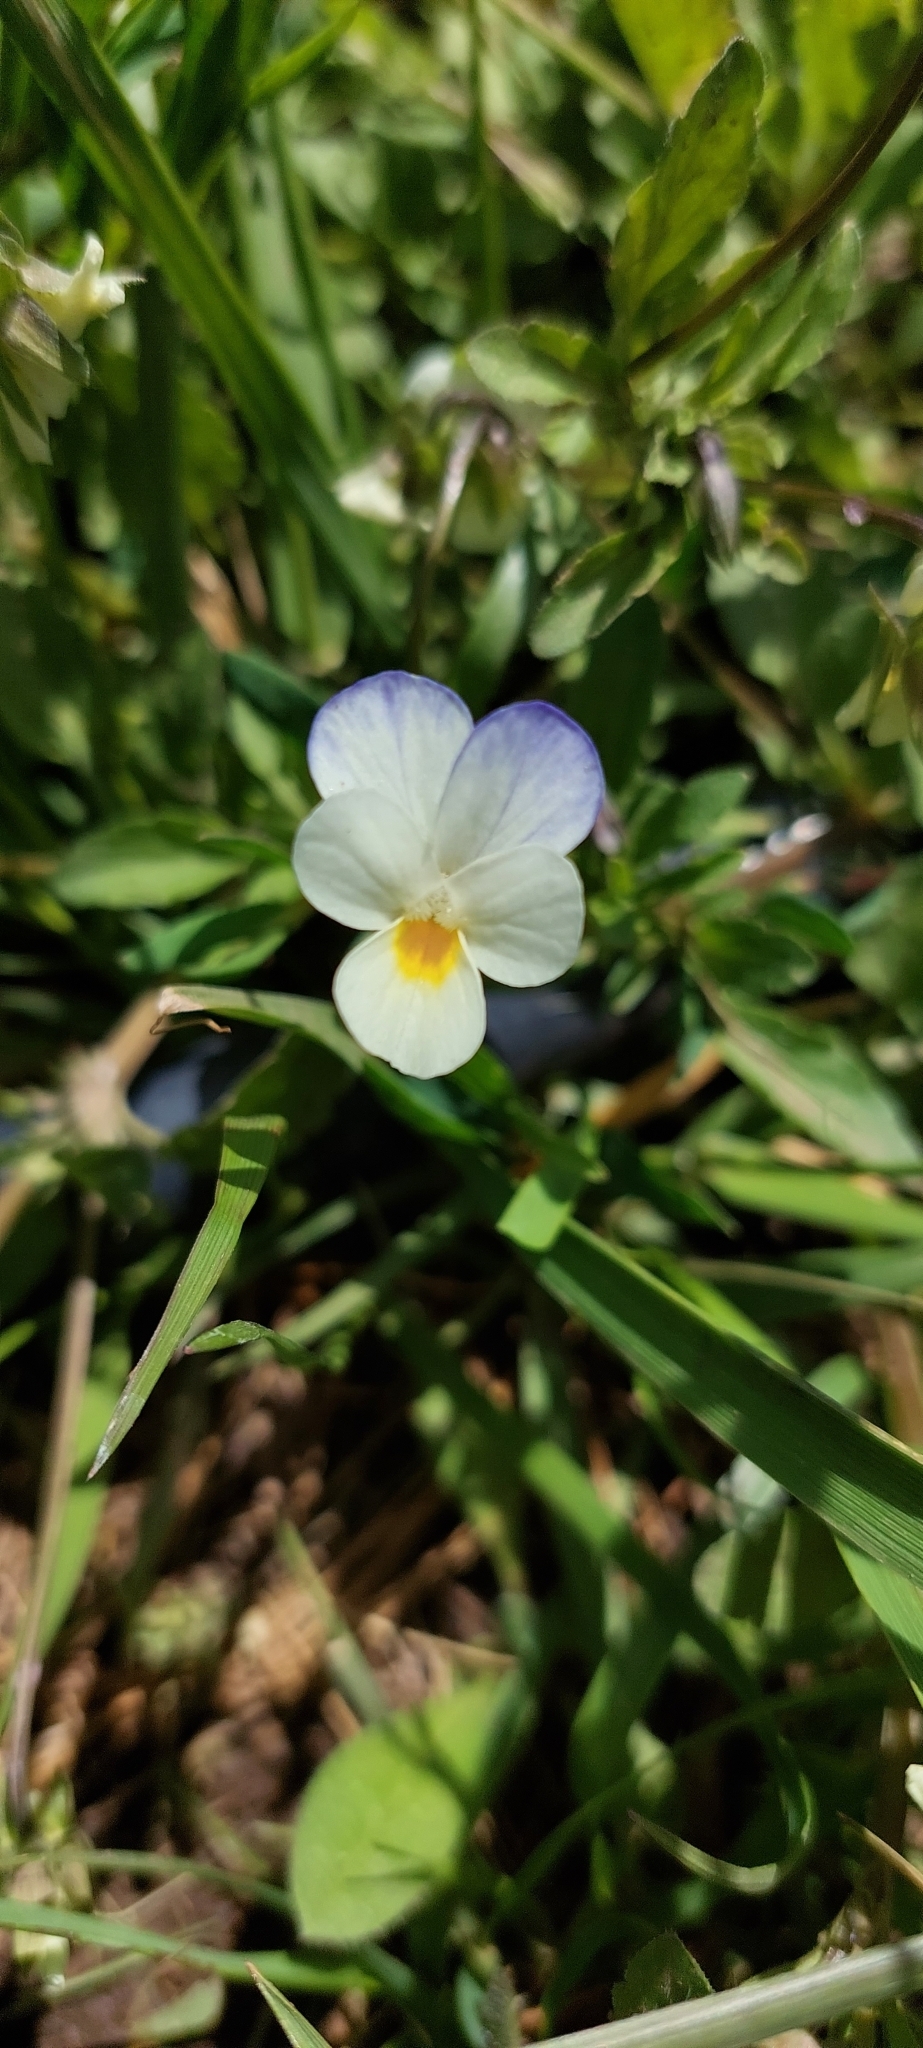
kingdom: Plantae
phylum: Tracheophyta
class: Magnoliopsida
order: Malpighiales
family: Violaceae
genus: Viola
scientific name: Viola arvensis
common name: Field pansy
